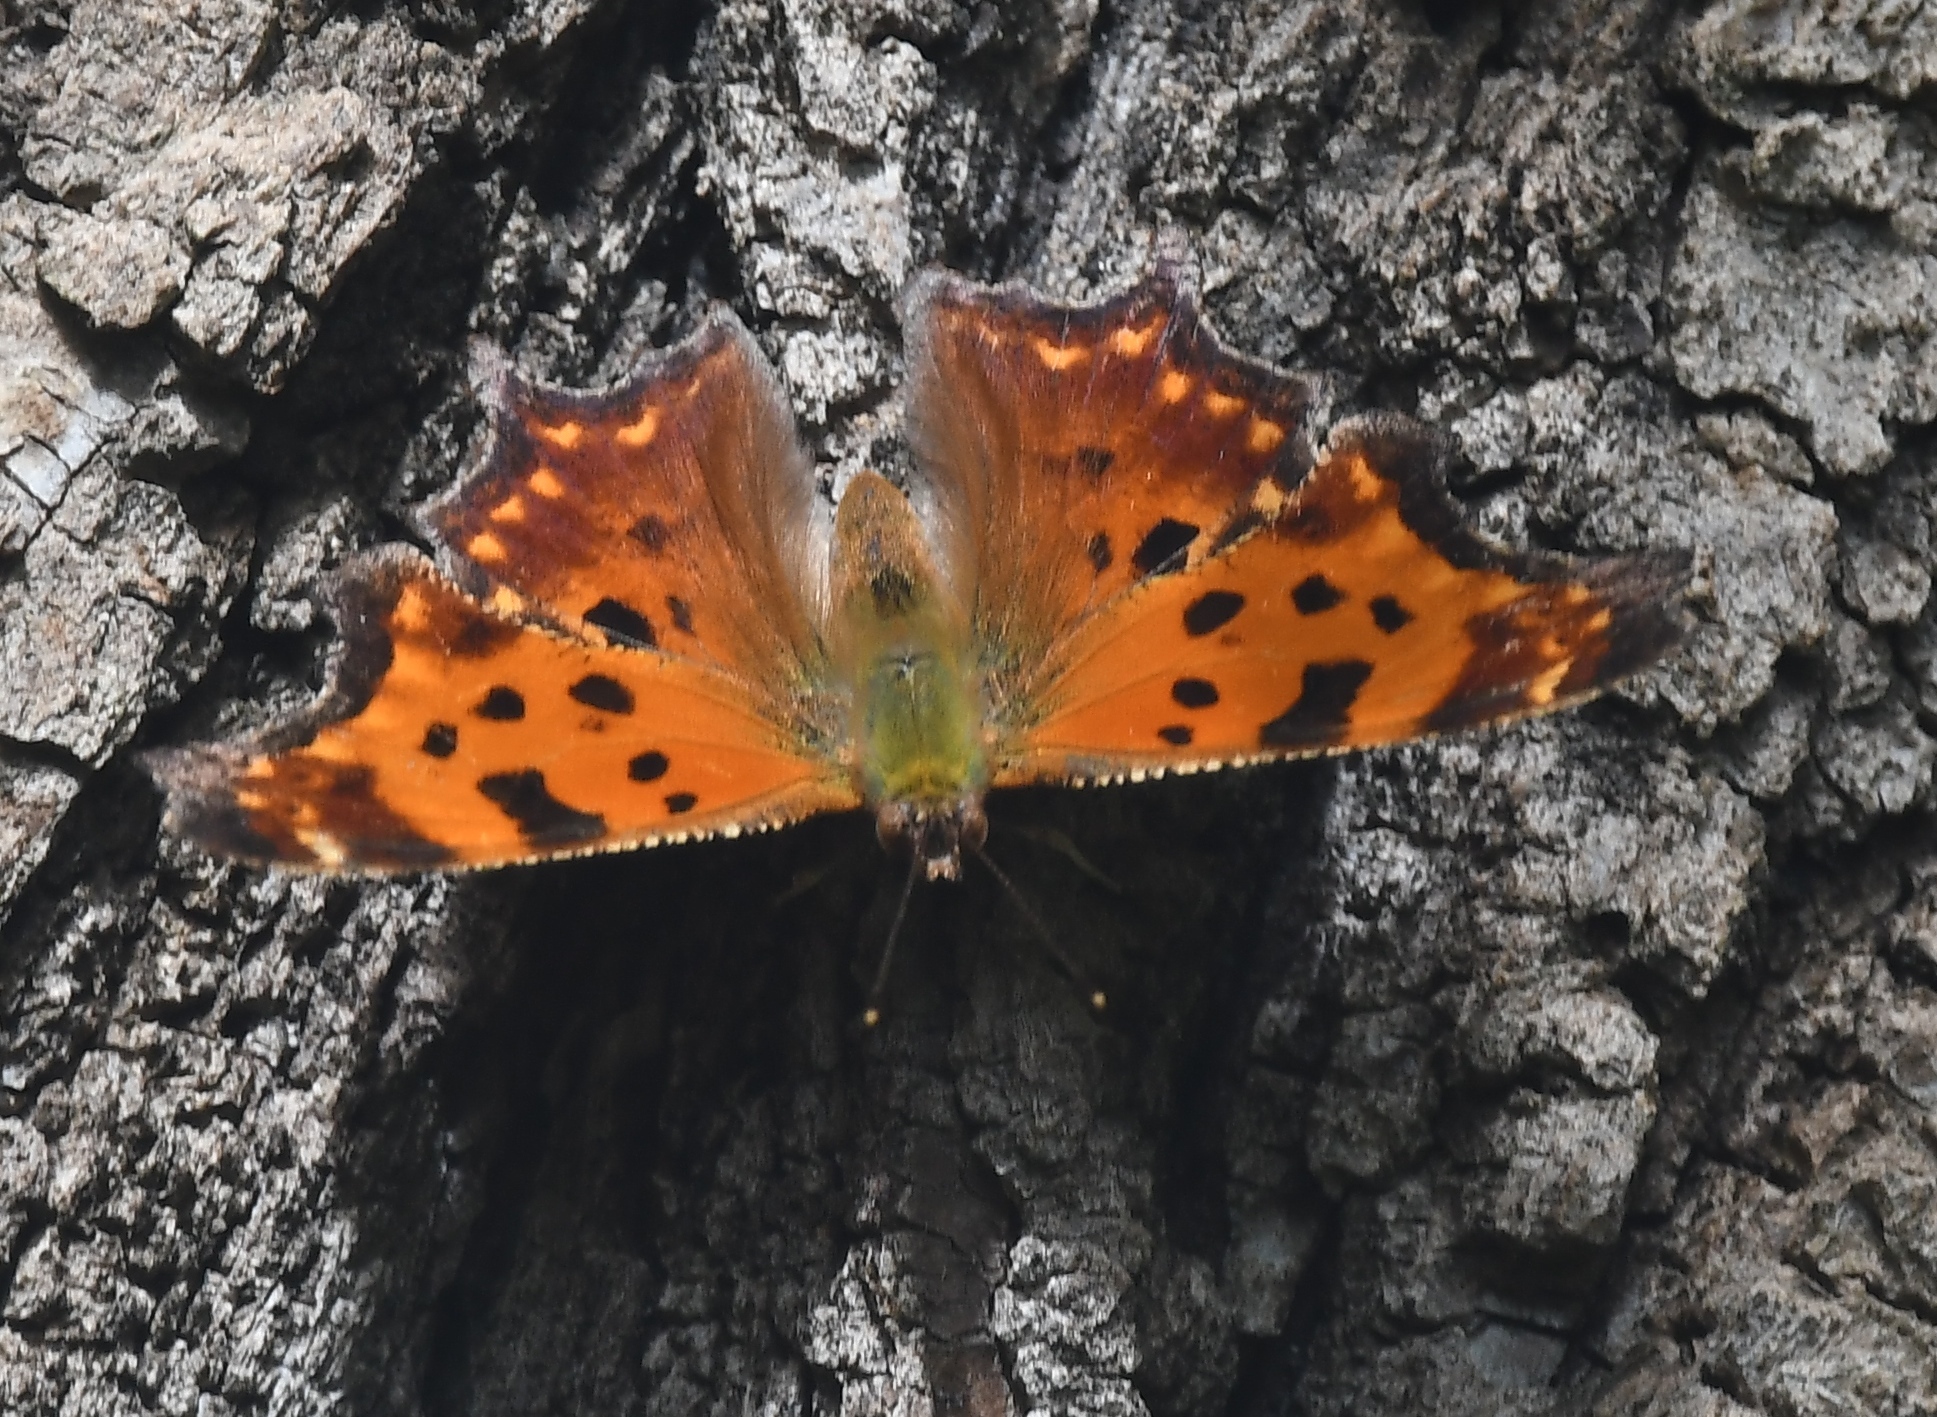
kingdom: Animalia
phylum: Arthropoda
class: Insecta
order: Lepidoptera
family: Nymphalidae
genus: Polygonia
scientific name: Polygonia comma
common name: Eastern comma
